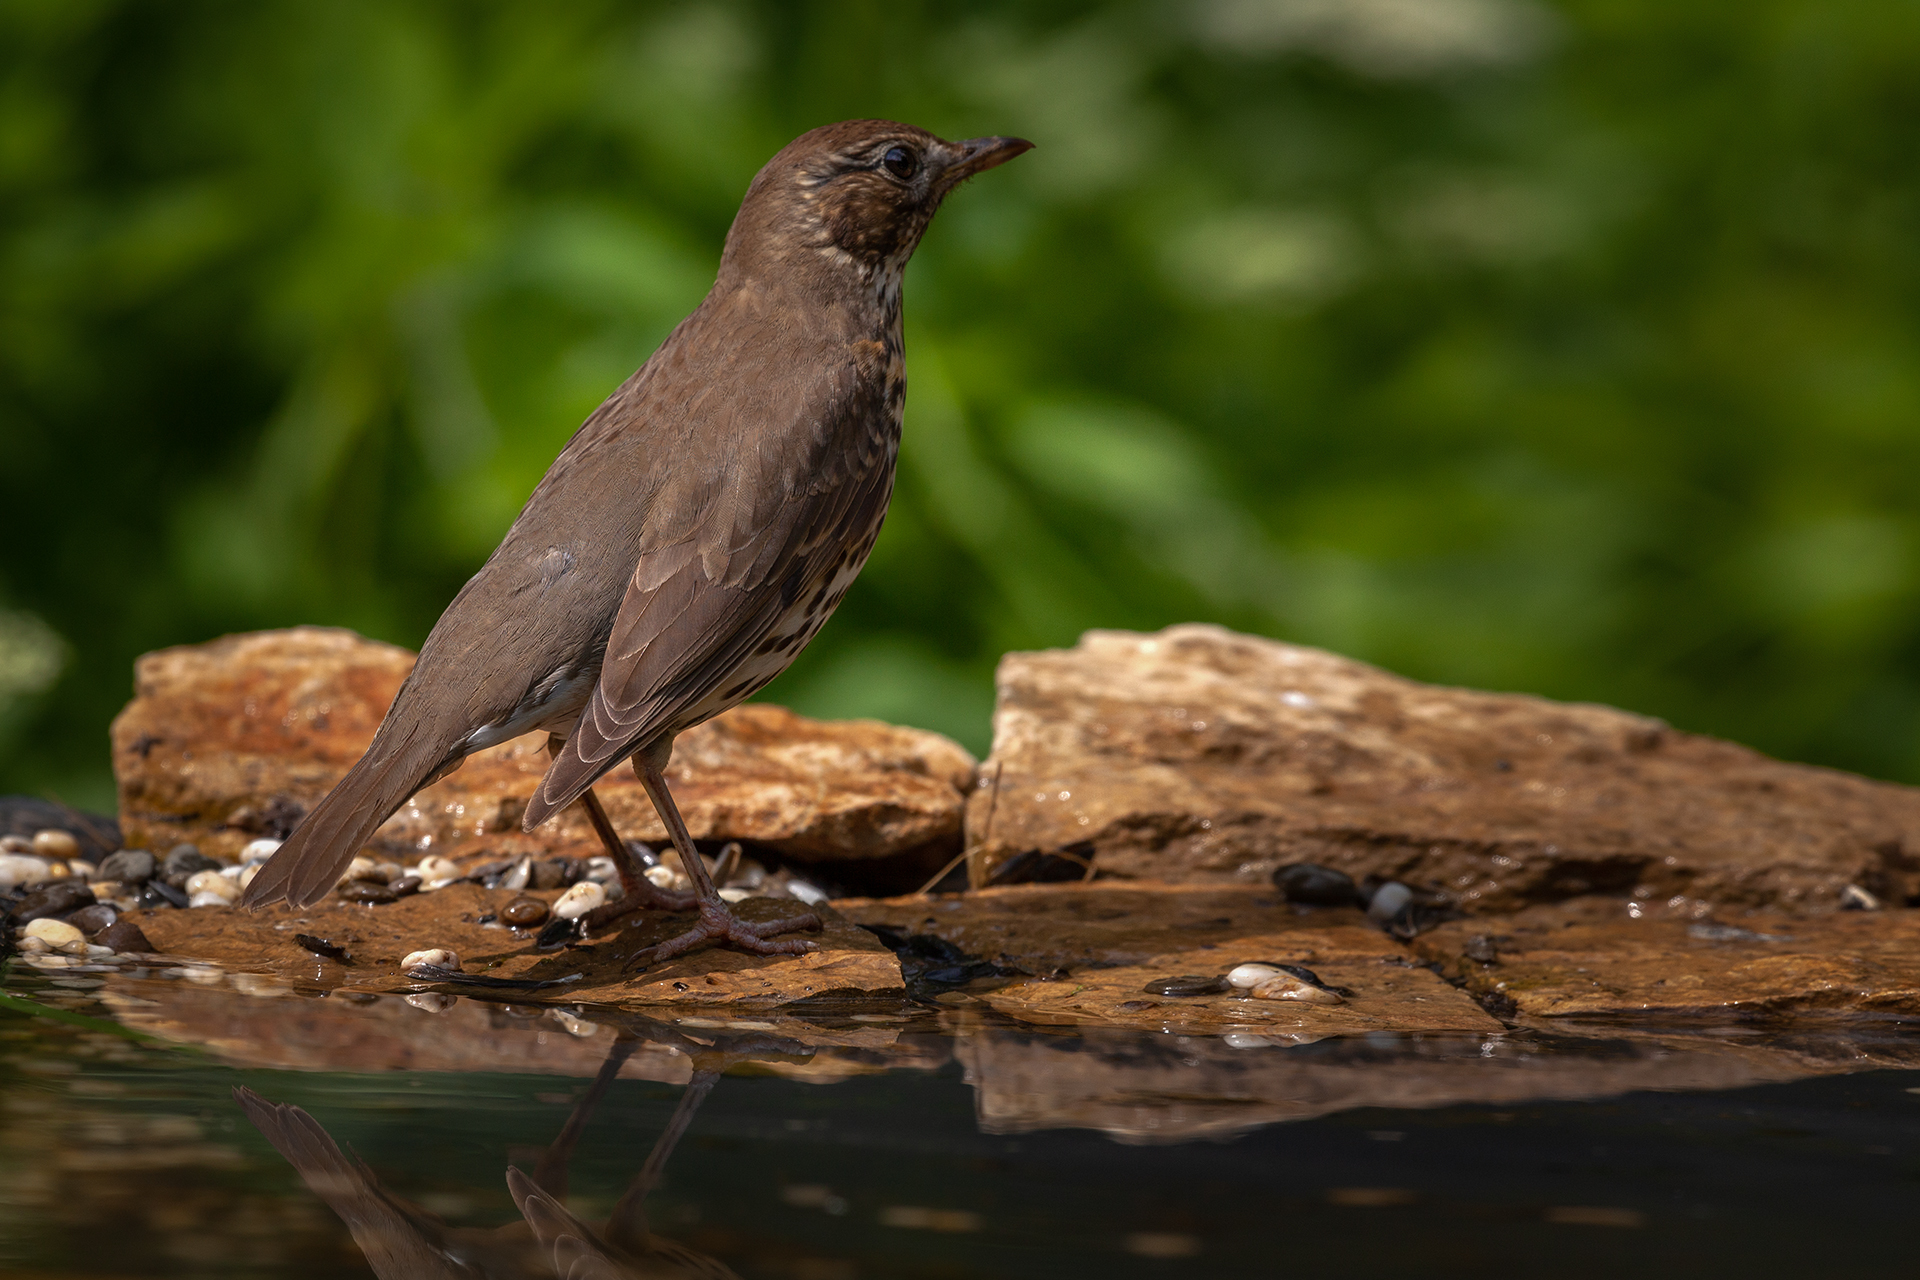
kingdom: Animalia
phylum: Chordata
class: Aves
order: Passeriformes
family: Turdidae
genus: Turdus
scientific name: Turdus philomelos
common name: Song thrush
